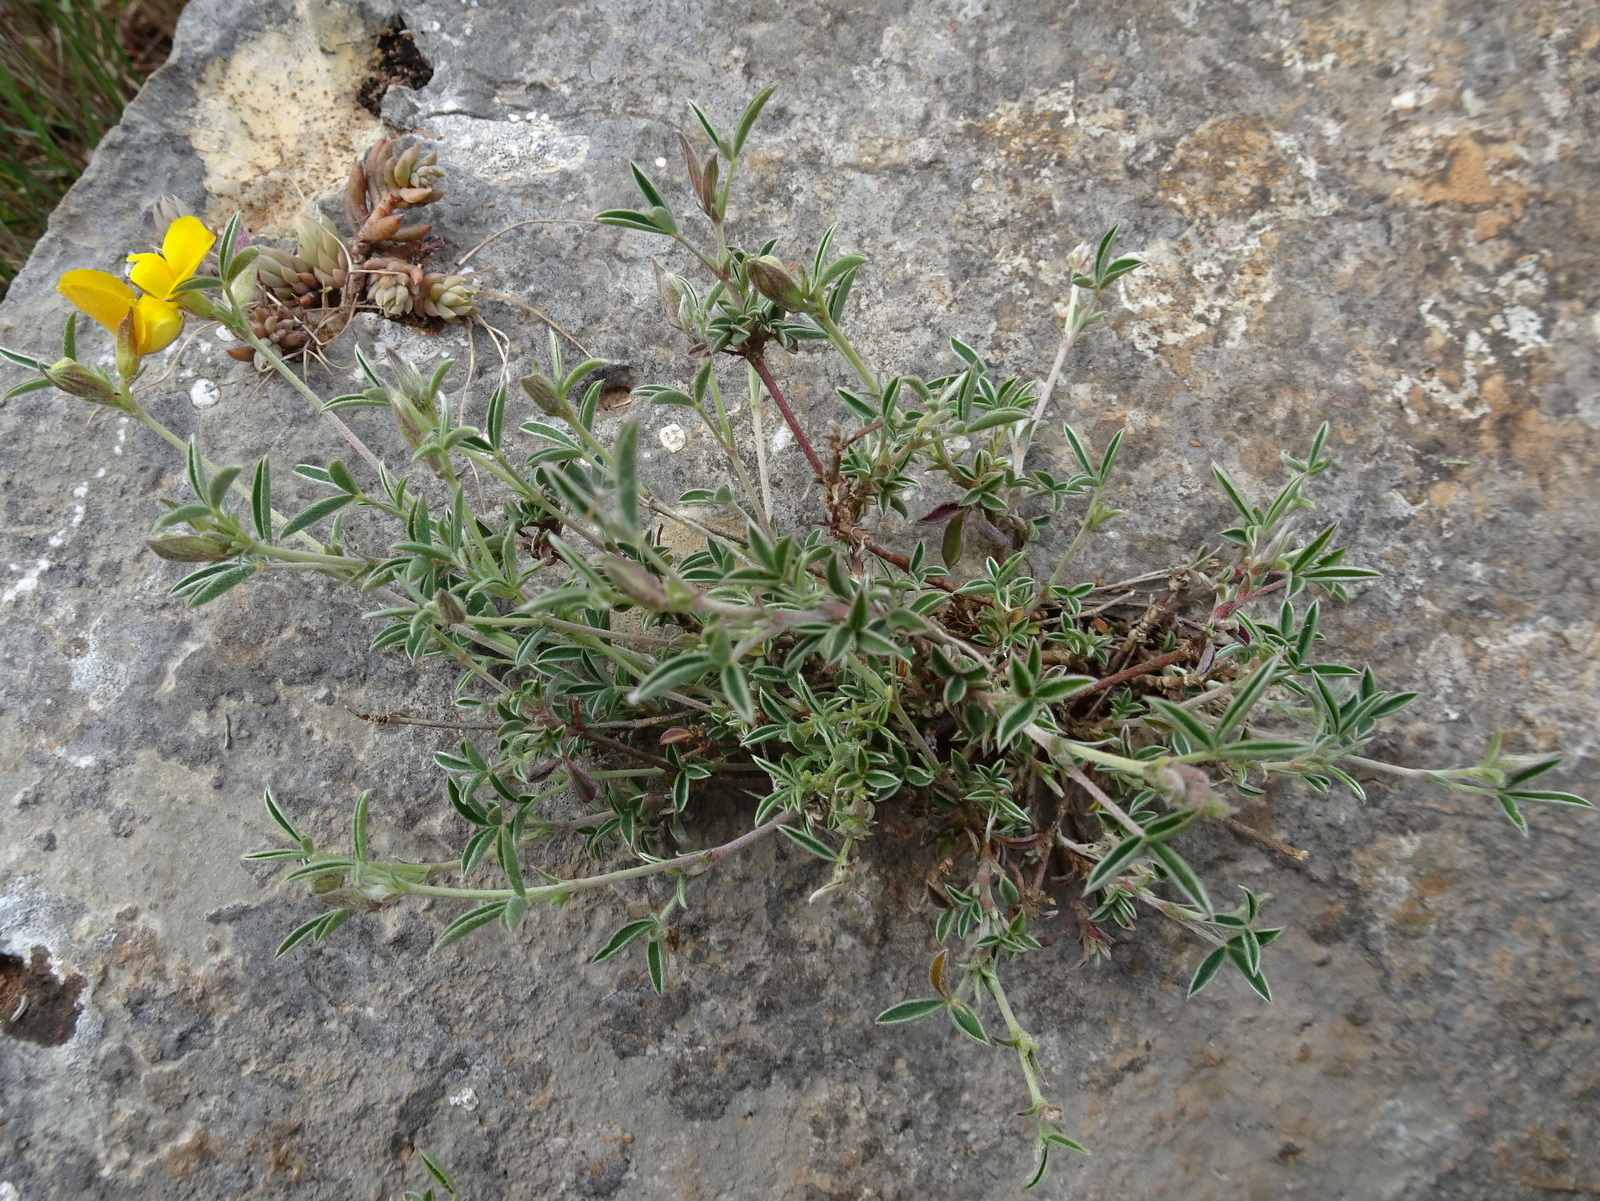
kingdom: Plantae
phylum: Tracheophyta
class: Magnoliopsida
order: Fabales
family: Fabaceae
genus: Argyrolobium
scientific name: Argyrolobium zanonii
